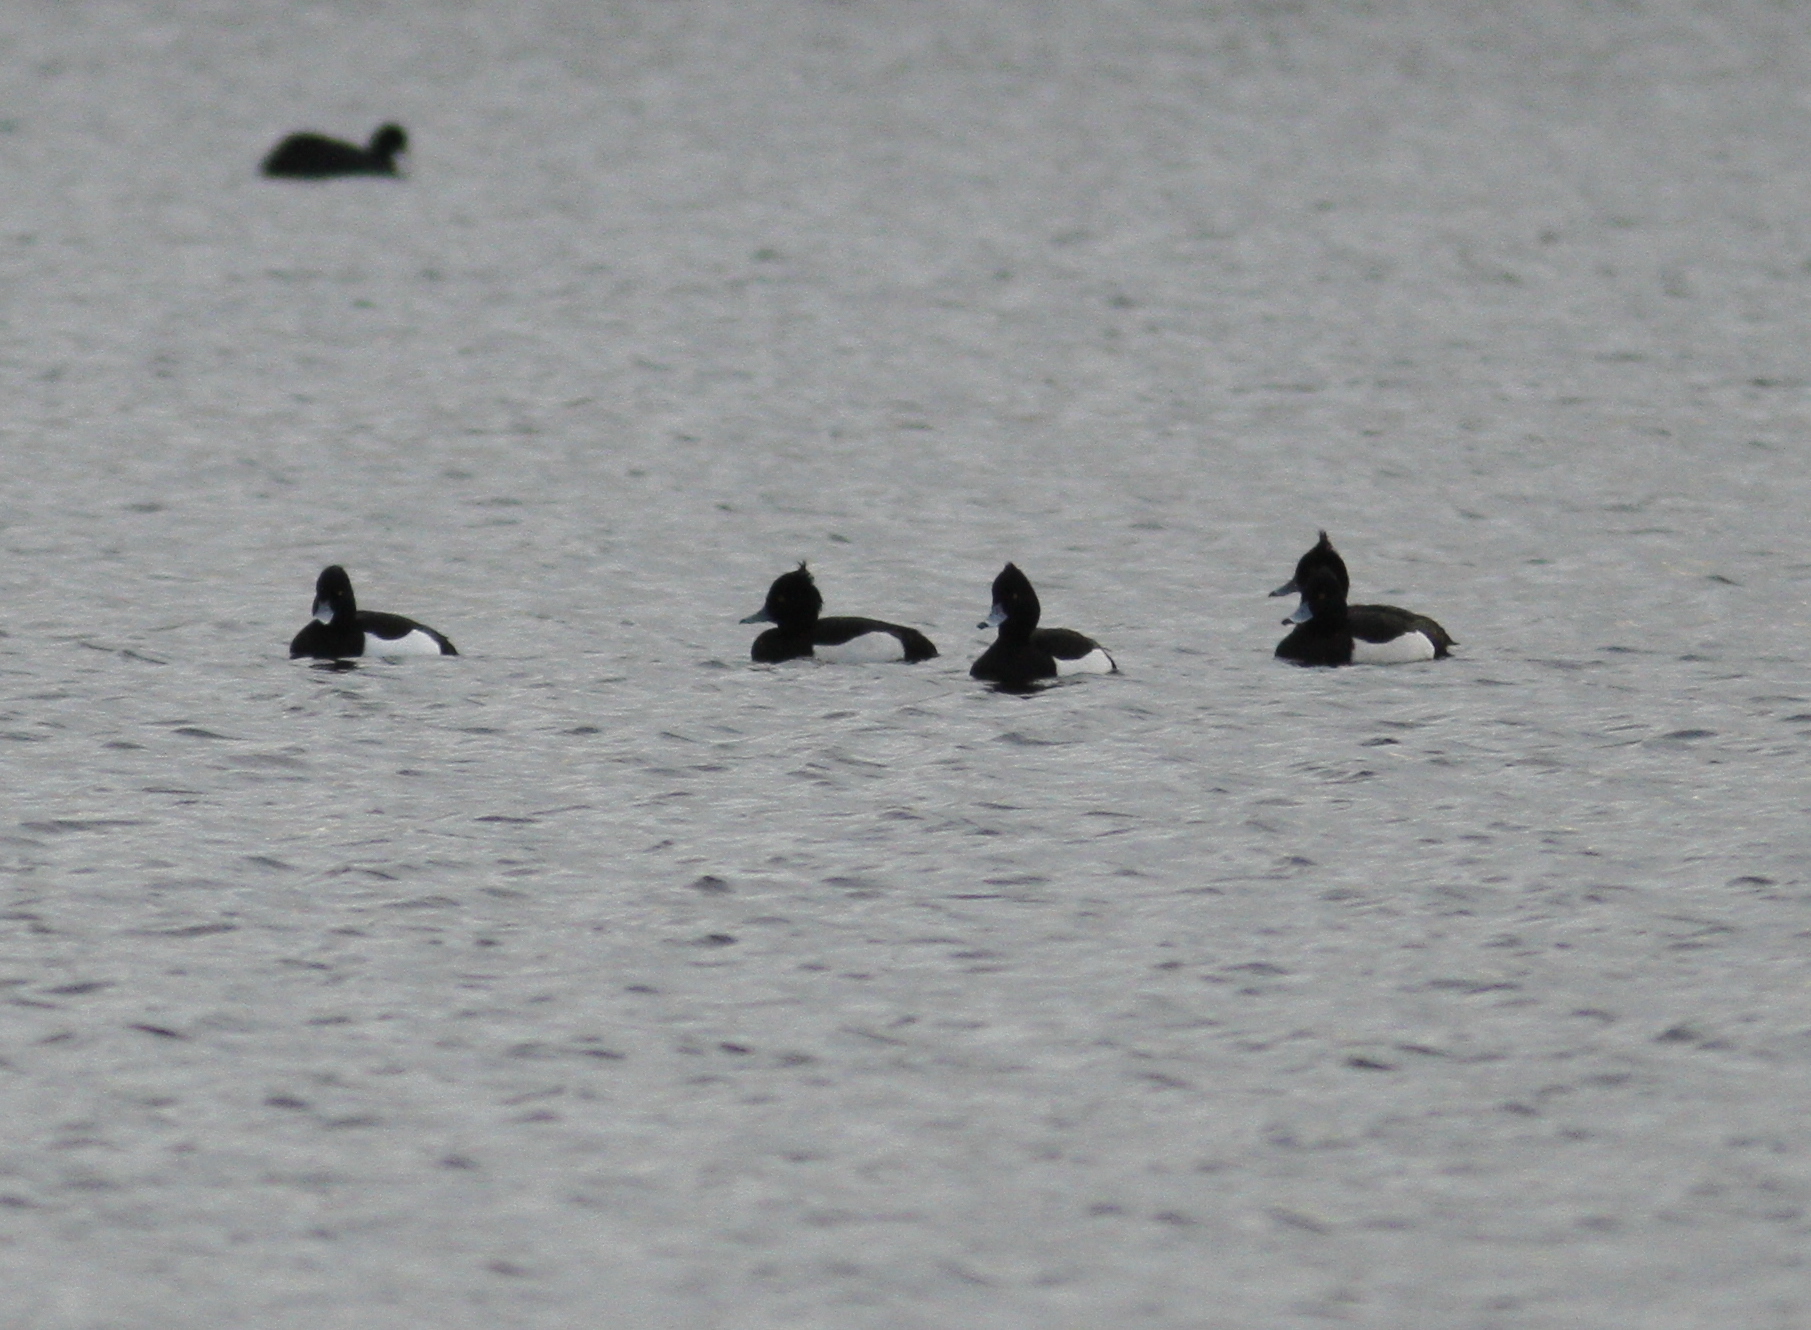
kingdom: Animalia
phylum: Chordata
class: Aves
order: Anseriformes
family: Anatidae
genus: Aythya
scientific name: Aythya fuligula
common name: Tufted duck
